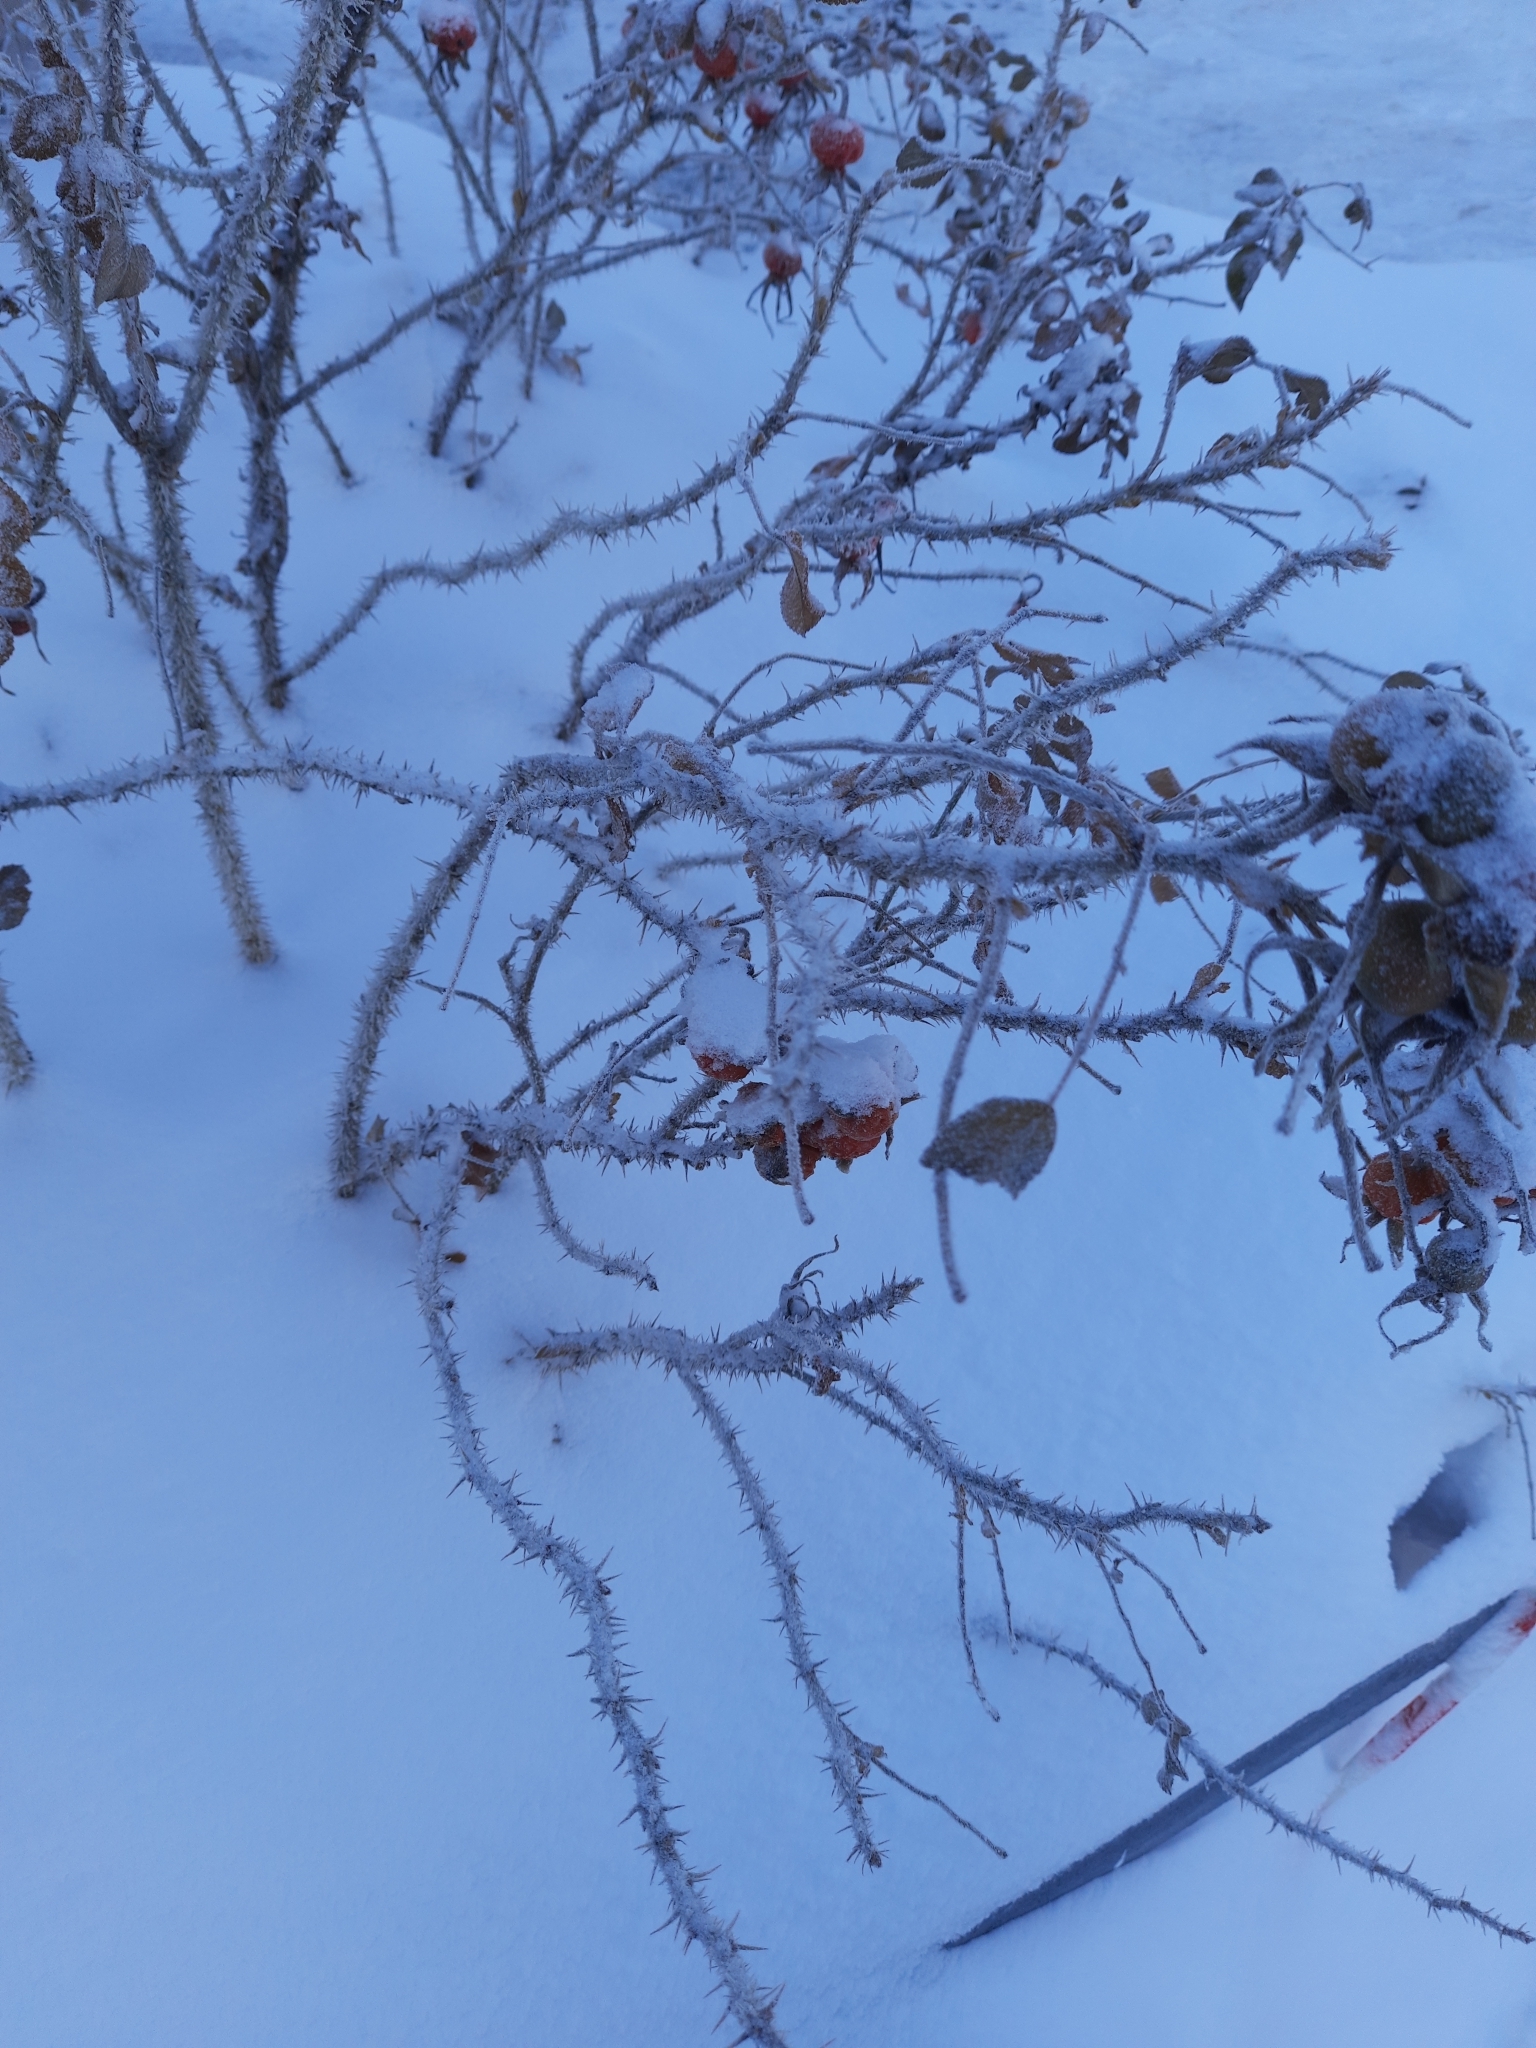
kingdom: Plantae
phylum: Tracheophyta
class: Magnoliopsida
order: Rosales
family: Rosaceae
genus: Rosa
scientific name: Rosa rugosa
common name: Japanese rose
